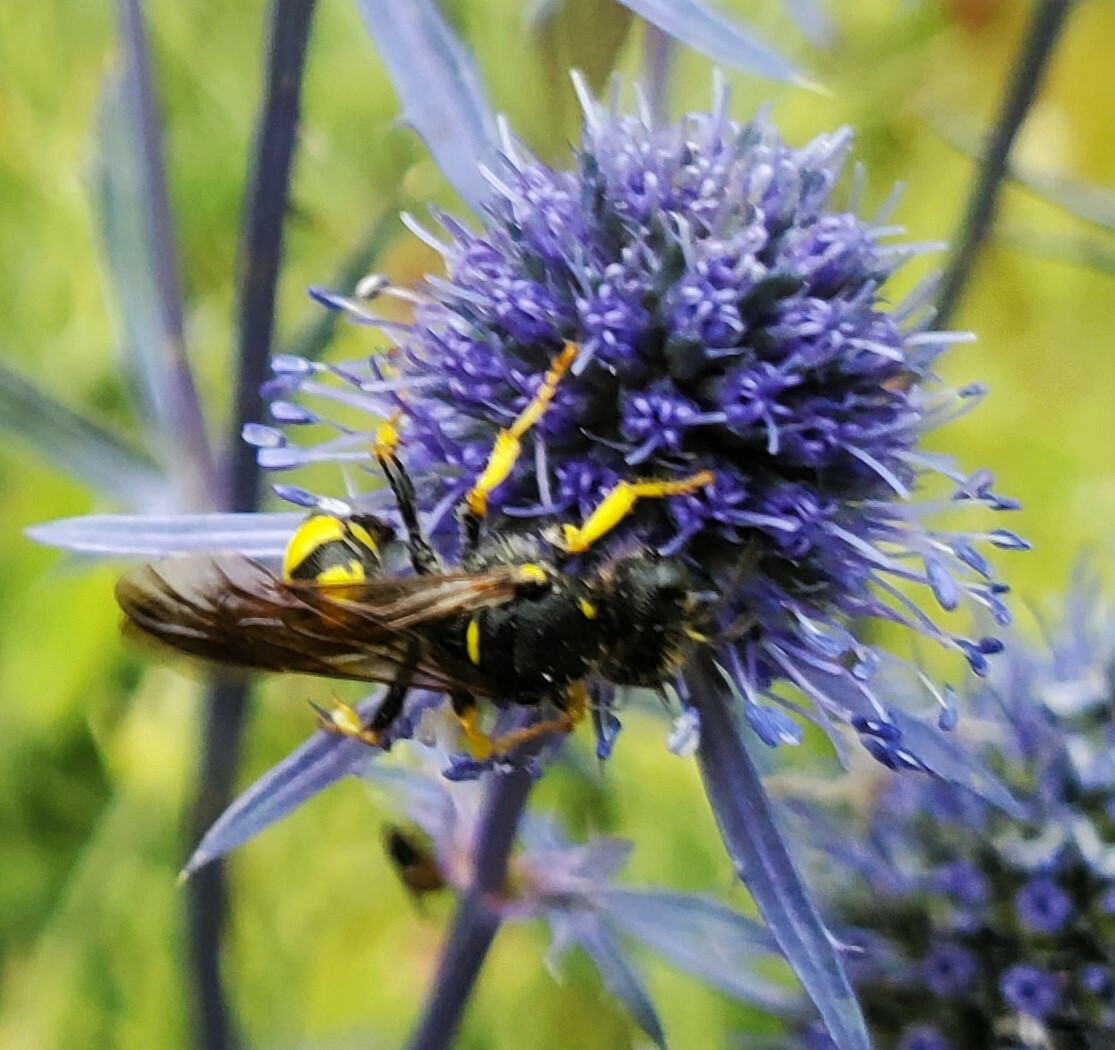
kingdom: Animalia
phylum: Arthropoda
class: Insecta
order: Hymenoptera
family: Crabronidae
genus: Cerceris
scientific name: Cerceris rybyensis
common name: Ornate tailed digger wasp
